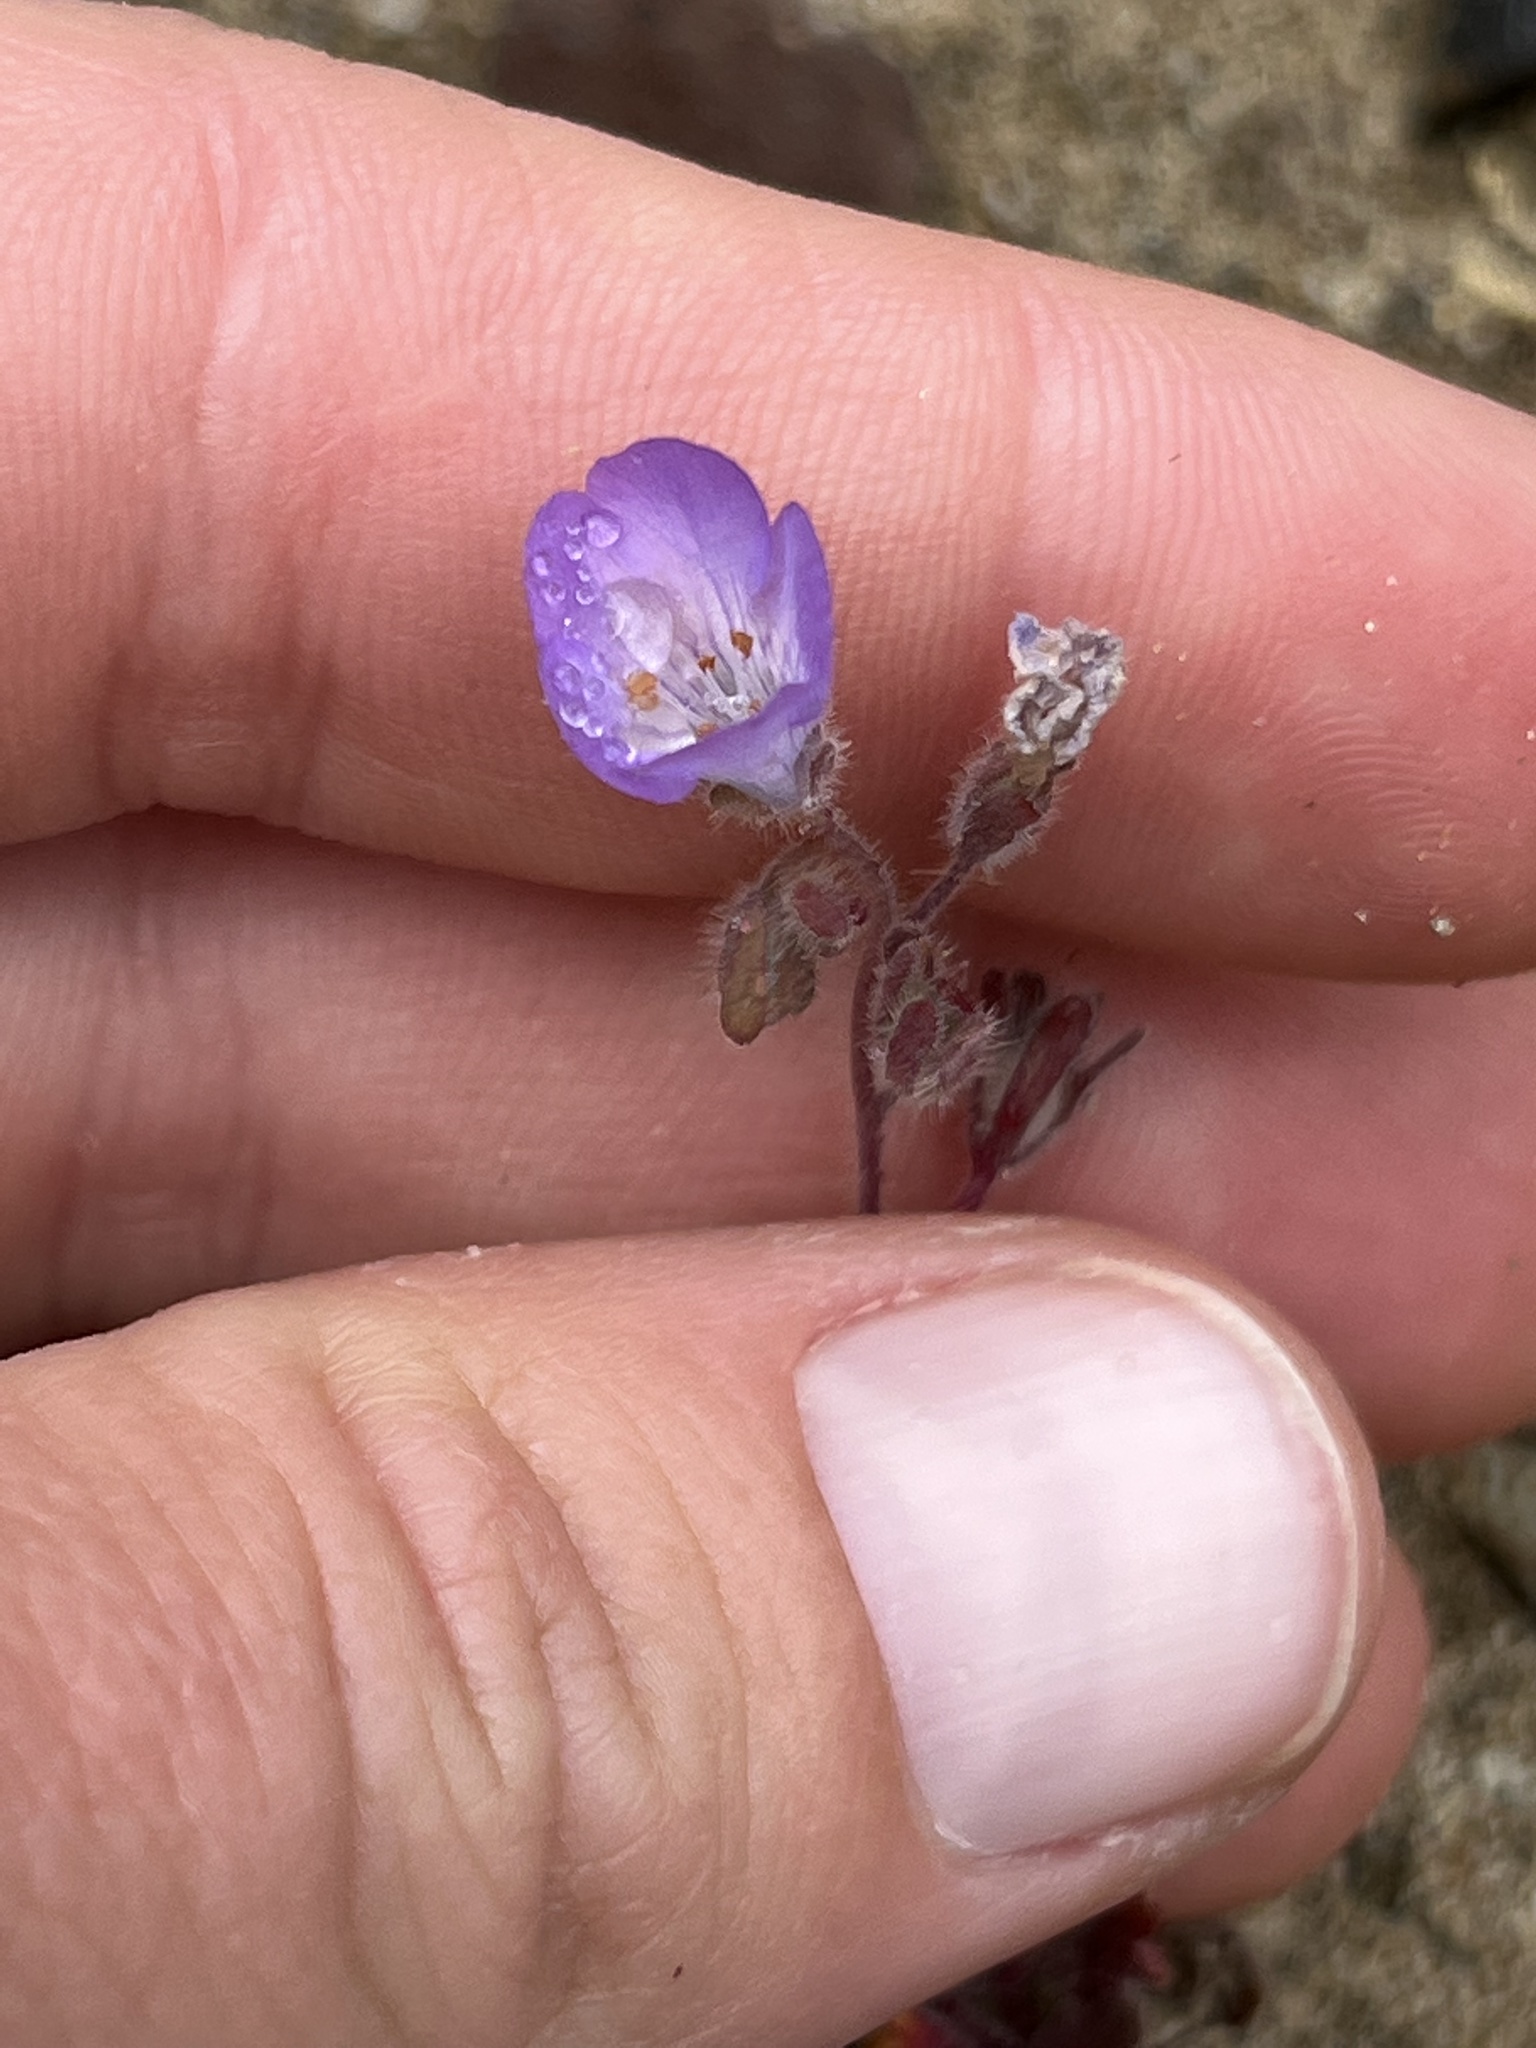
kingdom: Plantae
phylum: Tracheophyta
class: Magnoliopsida
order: Boraginales
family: Hydrophyllaceae
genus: Phacelia
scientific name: Phacelia douglasii
